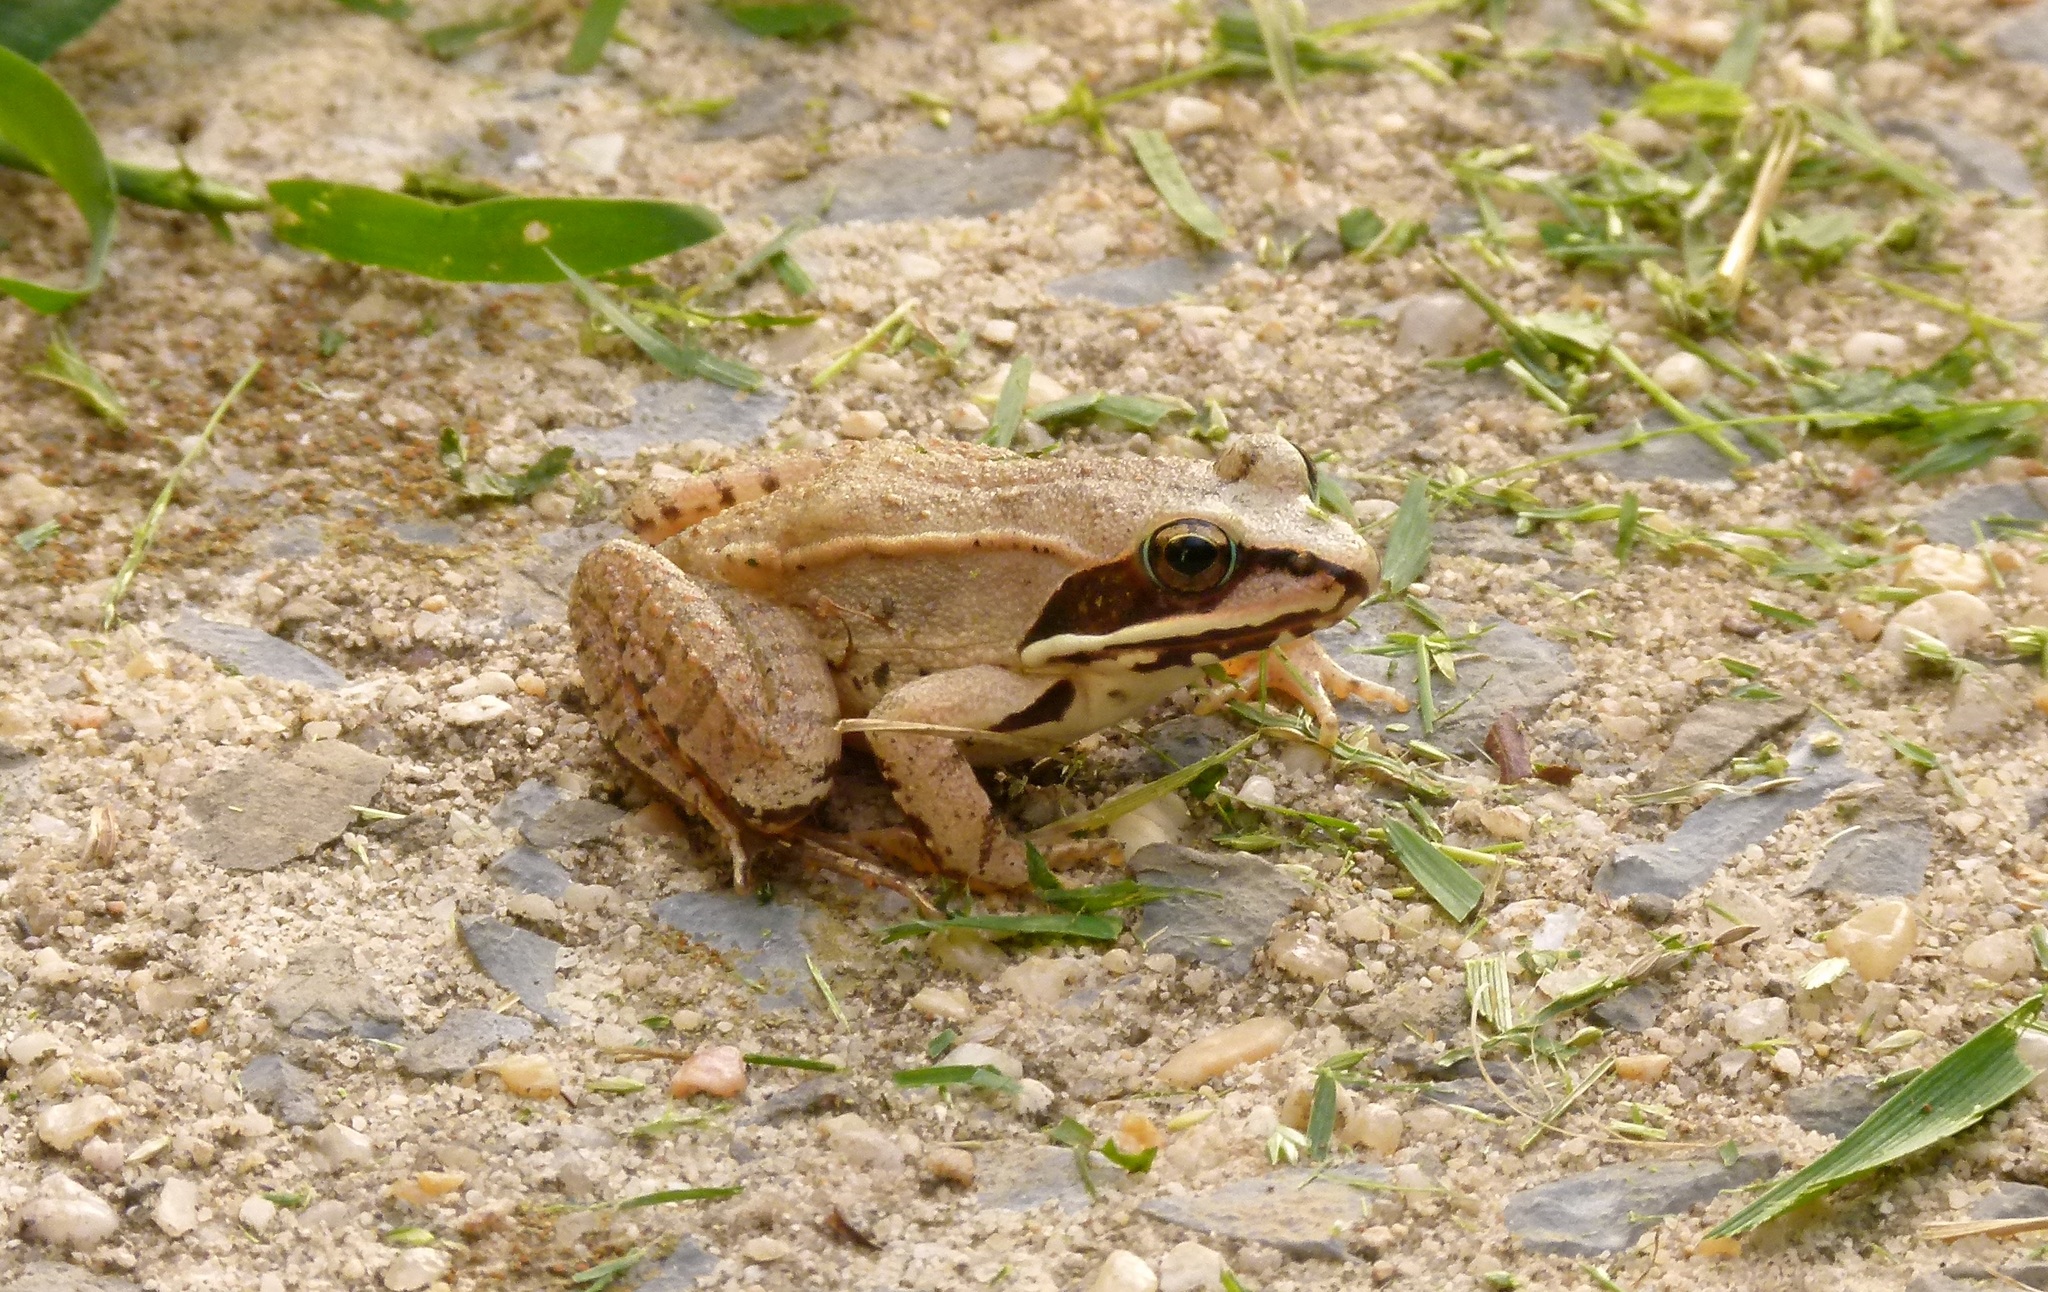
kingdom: Animalia
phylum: Chordata
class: Amphibia
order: Anura
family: Ranidae
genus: Lithobates
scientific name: Lithobates sylvaticus
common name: Wood frog
